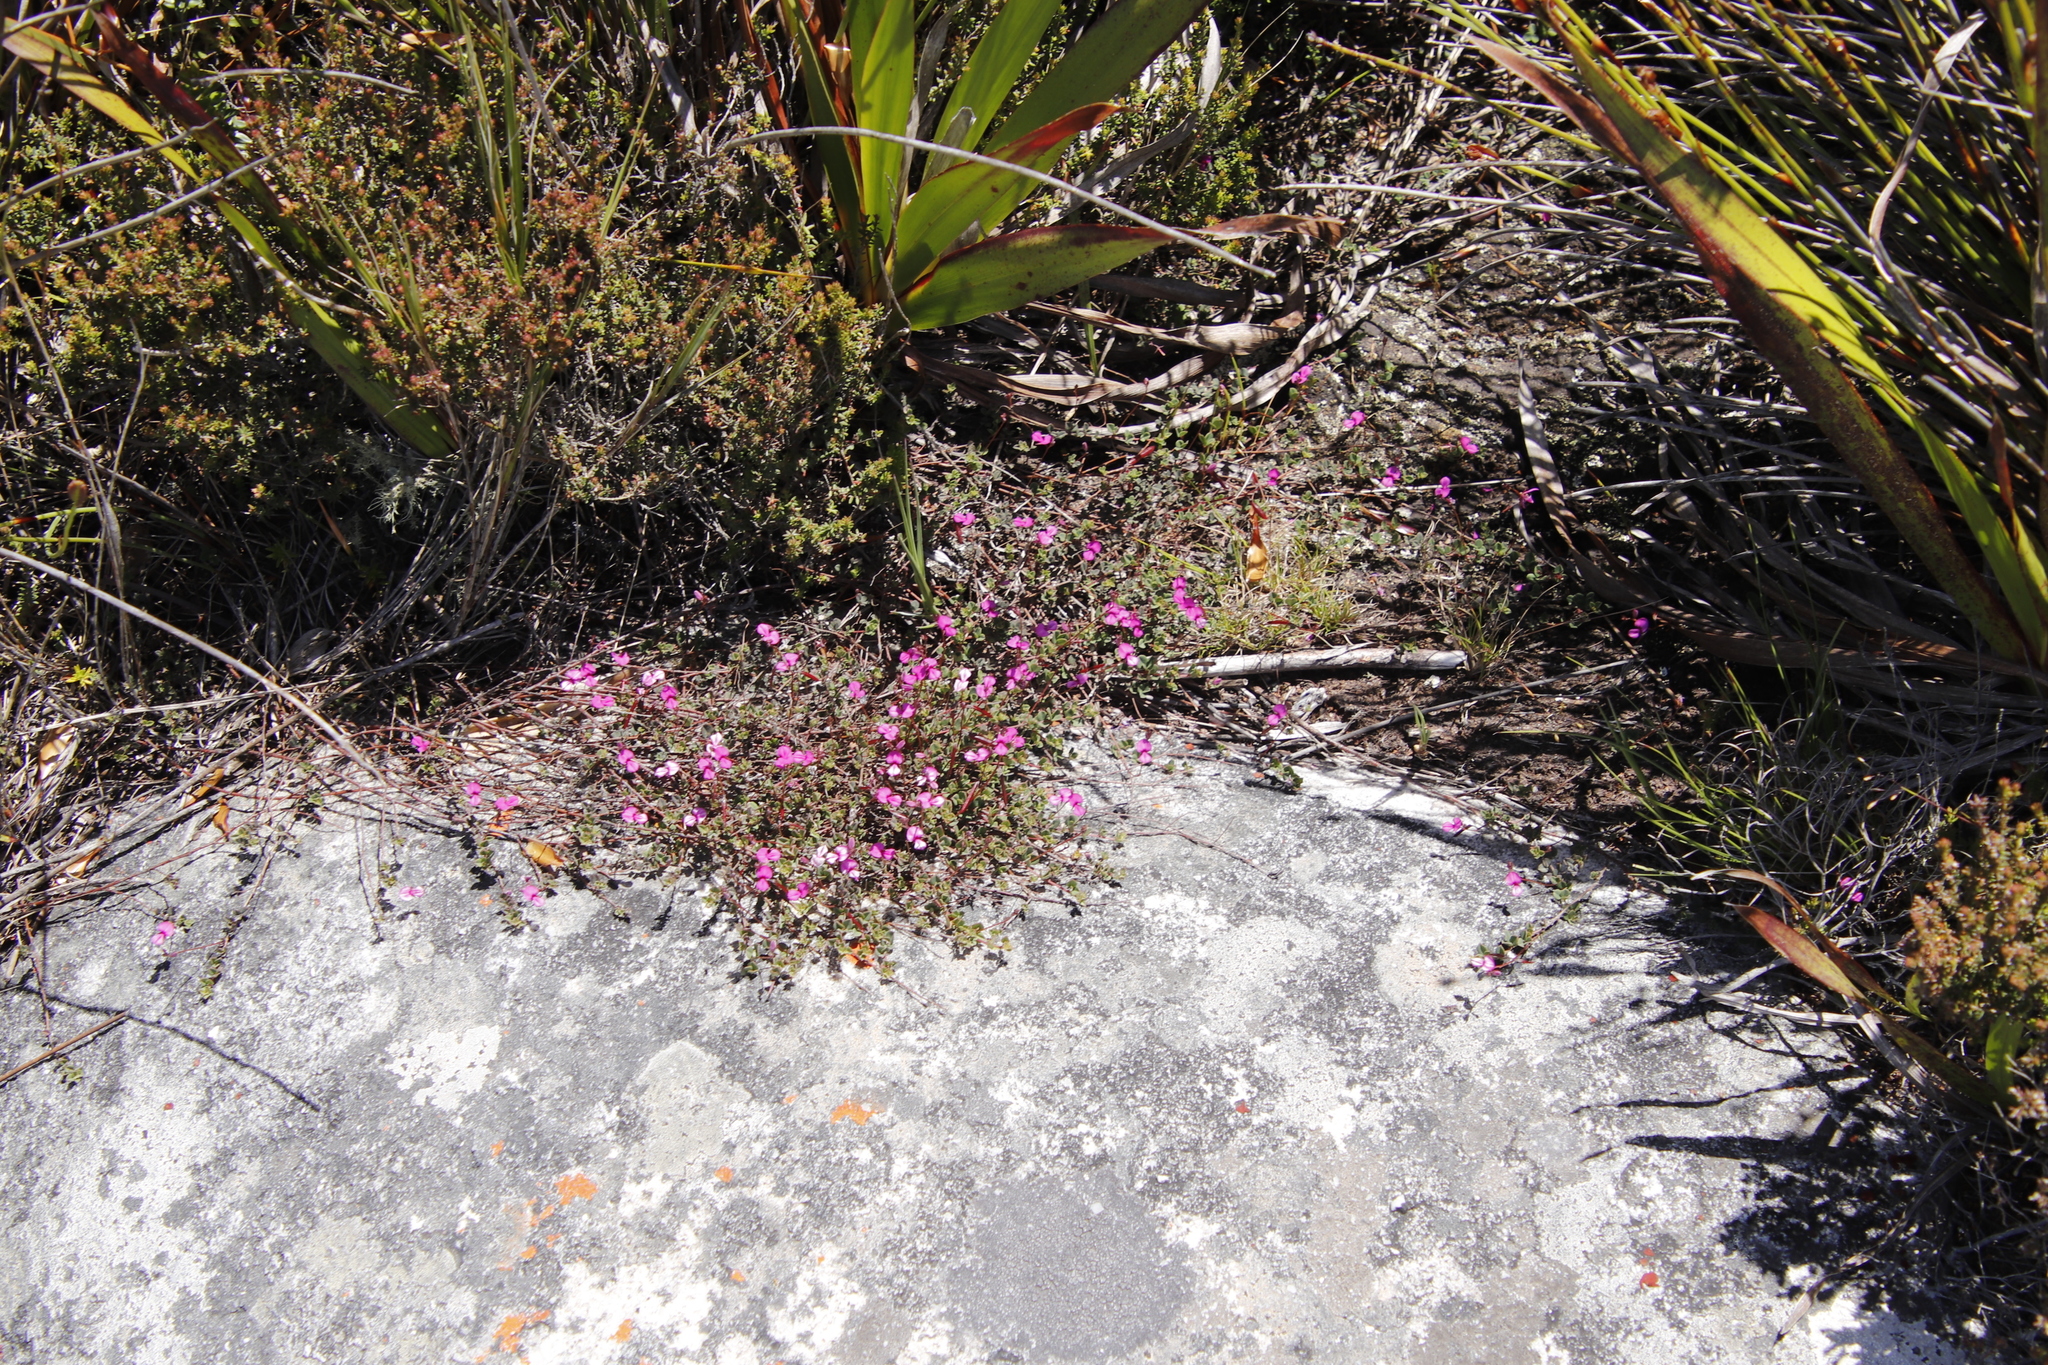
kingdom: Plantae
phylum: Tracheophyta
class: Magnoliopsida
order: Fabales
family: Fabaceae
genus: Indigofera
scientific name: Indigofera sarmentosa
